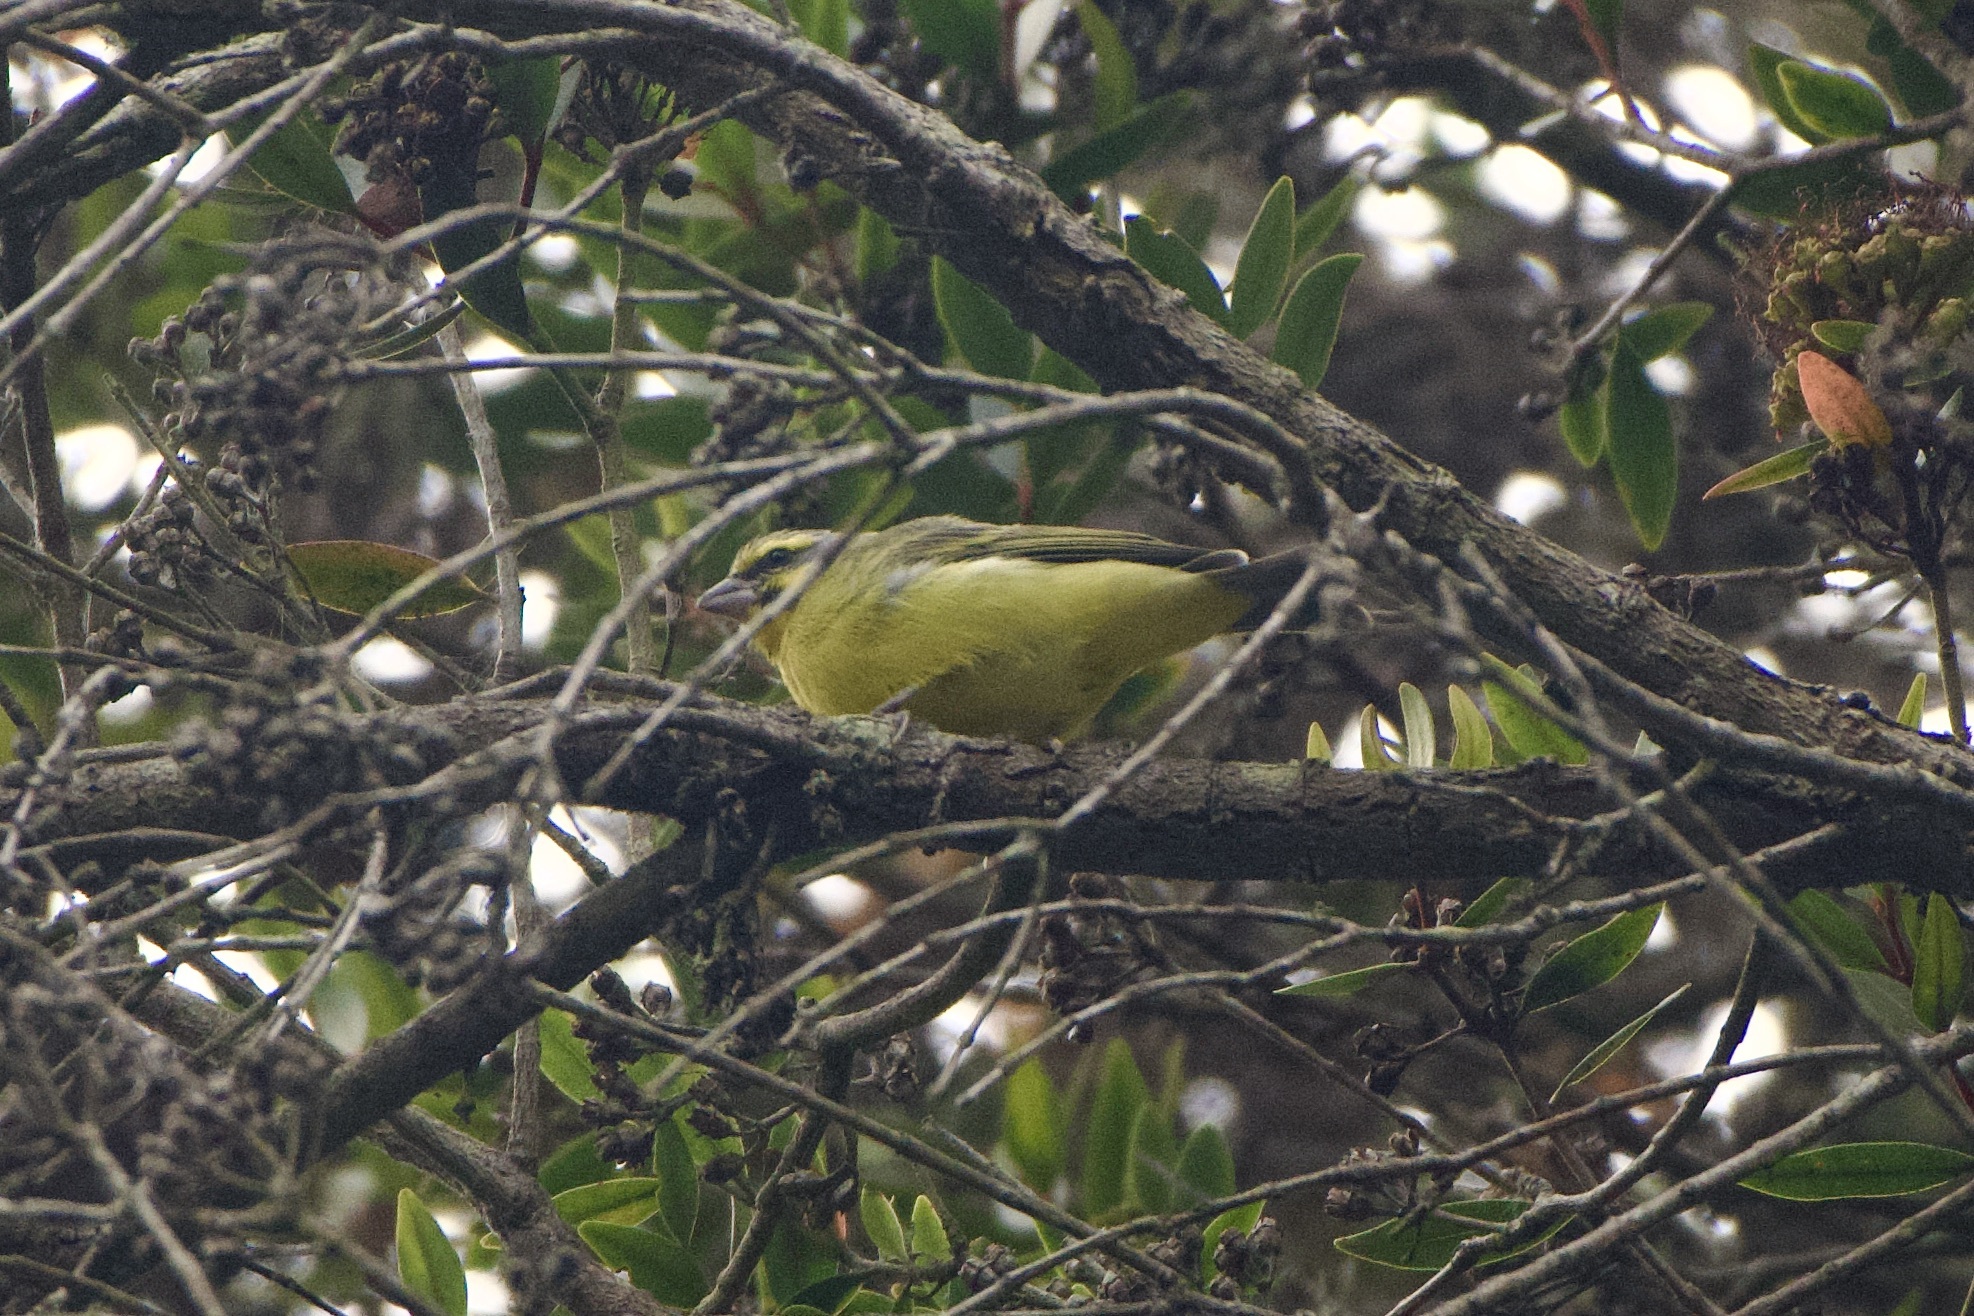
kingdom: Animalia
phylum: Chordata
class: Aves
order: Passeriformes
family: Fringillidae
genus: Crithagra
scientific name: Crithagra mozambica
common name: Yellow-fronted canary
